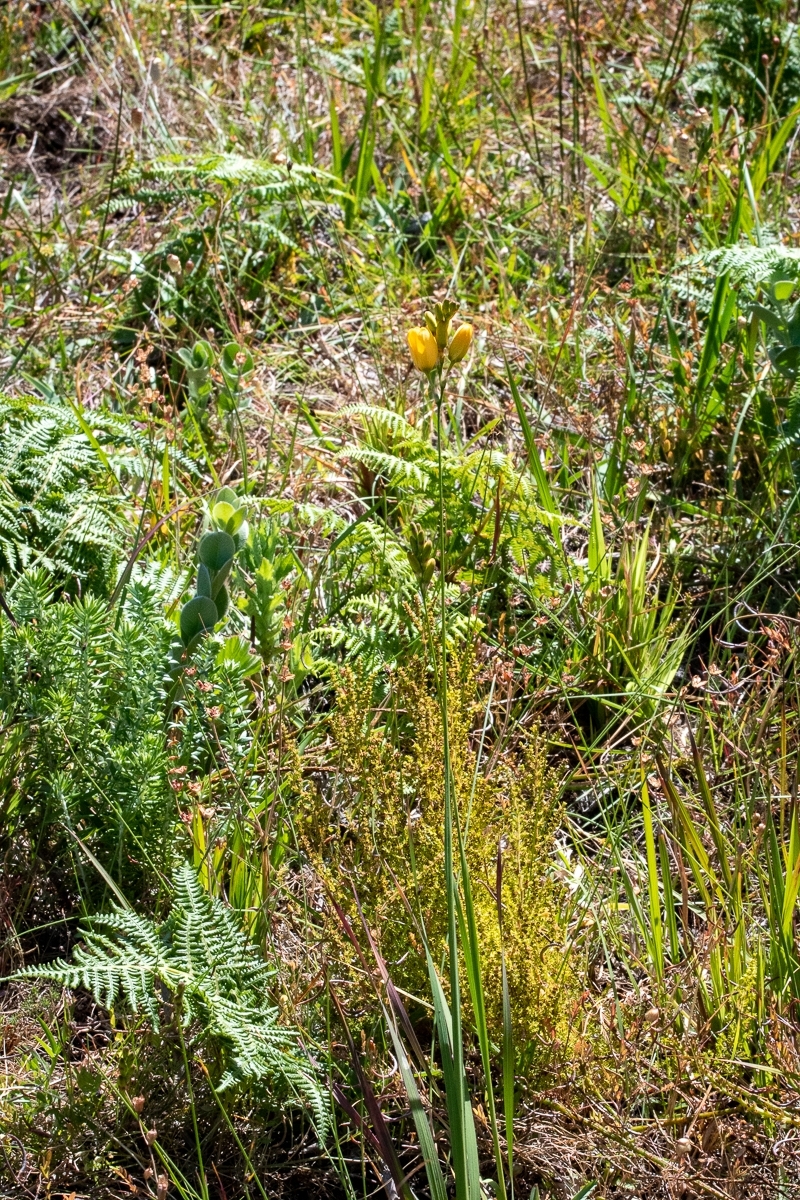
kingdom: Plantae
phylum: Tracheophyta
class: Liliopsida
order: Asparagales
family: Iridaceae
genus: Ixia
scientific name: Ixia dubia
